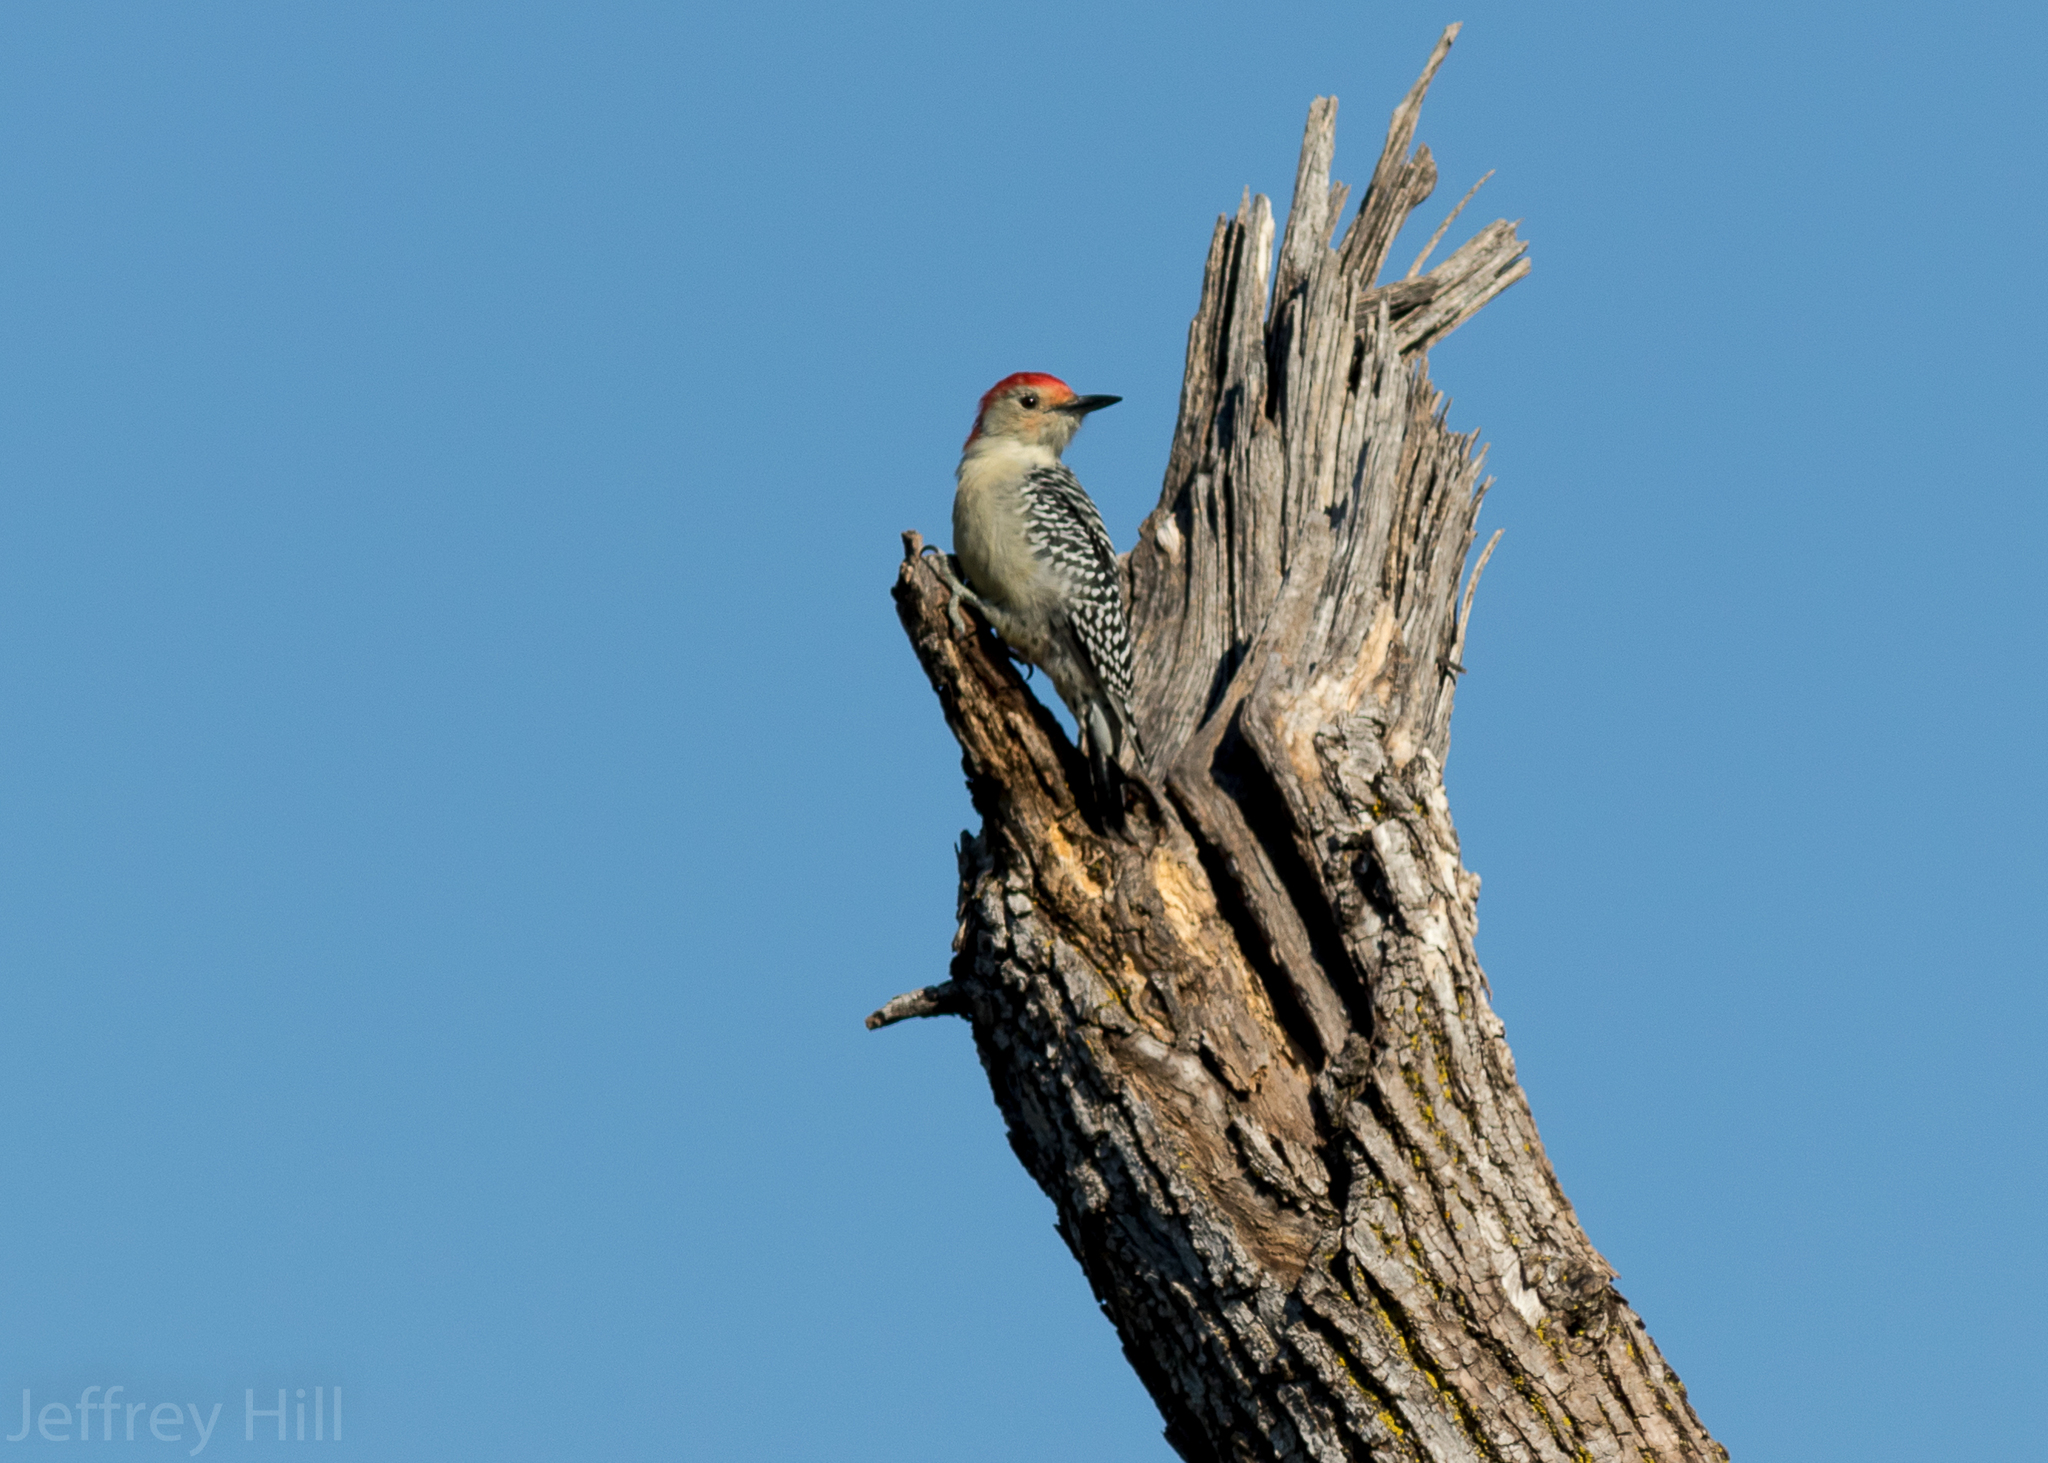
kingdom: Animalia
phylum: Chordata
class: Aves
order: Piciformes
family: Picidae
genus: Melanerpes
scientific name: Melanerpes carolinus
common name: Red-bellied woodpecker
